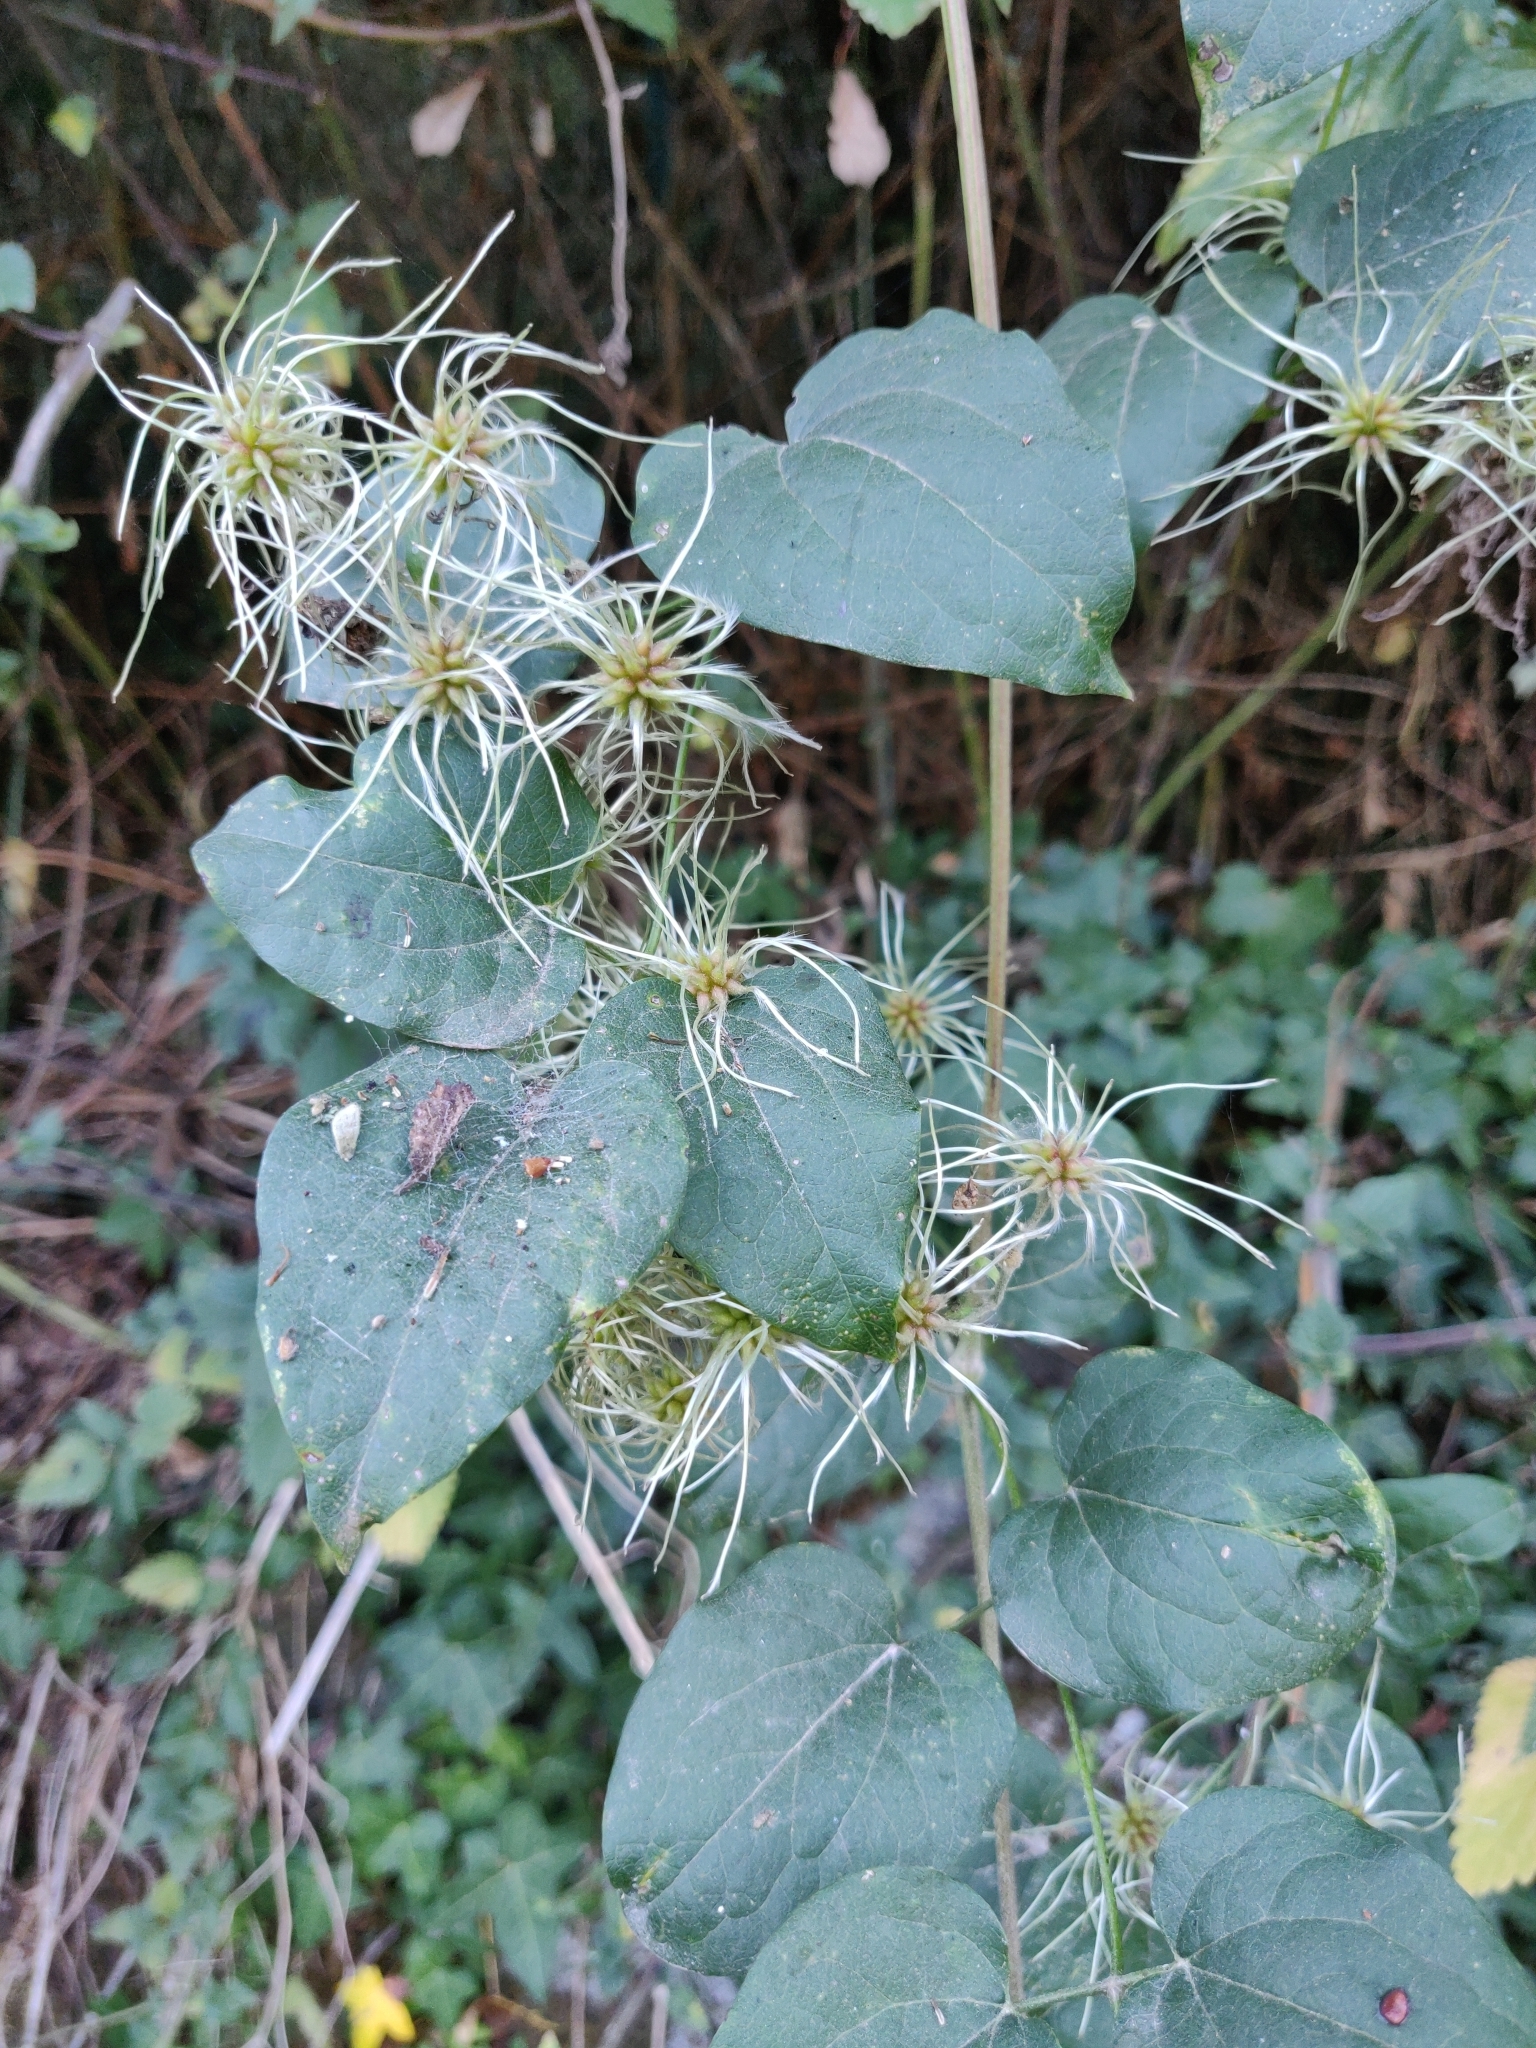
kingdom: Plantae
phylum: Tracheophyta
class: Magnoliopsida
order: Ranunculales
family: Ranunculaceae
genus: Clematis
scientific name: Clematis vitalba
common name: Evergreen clematis
